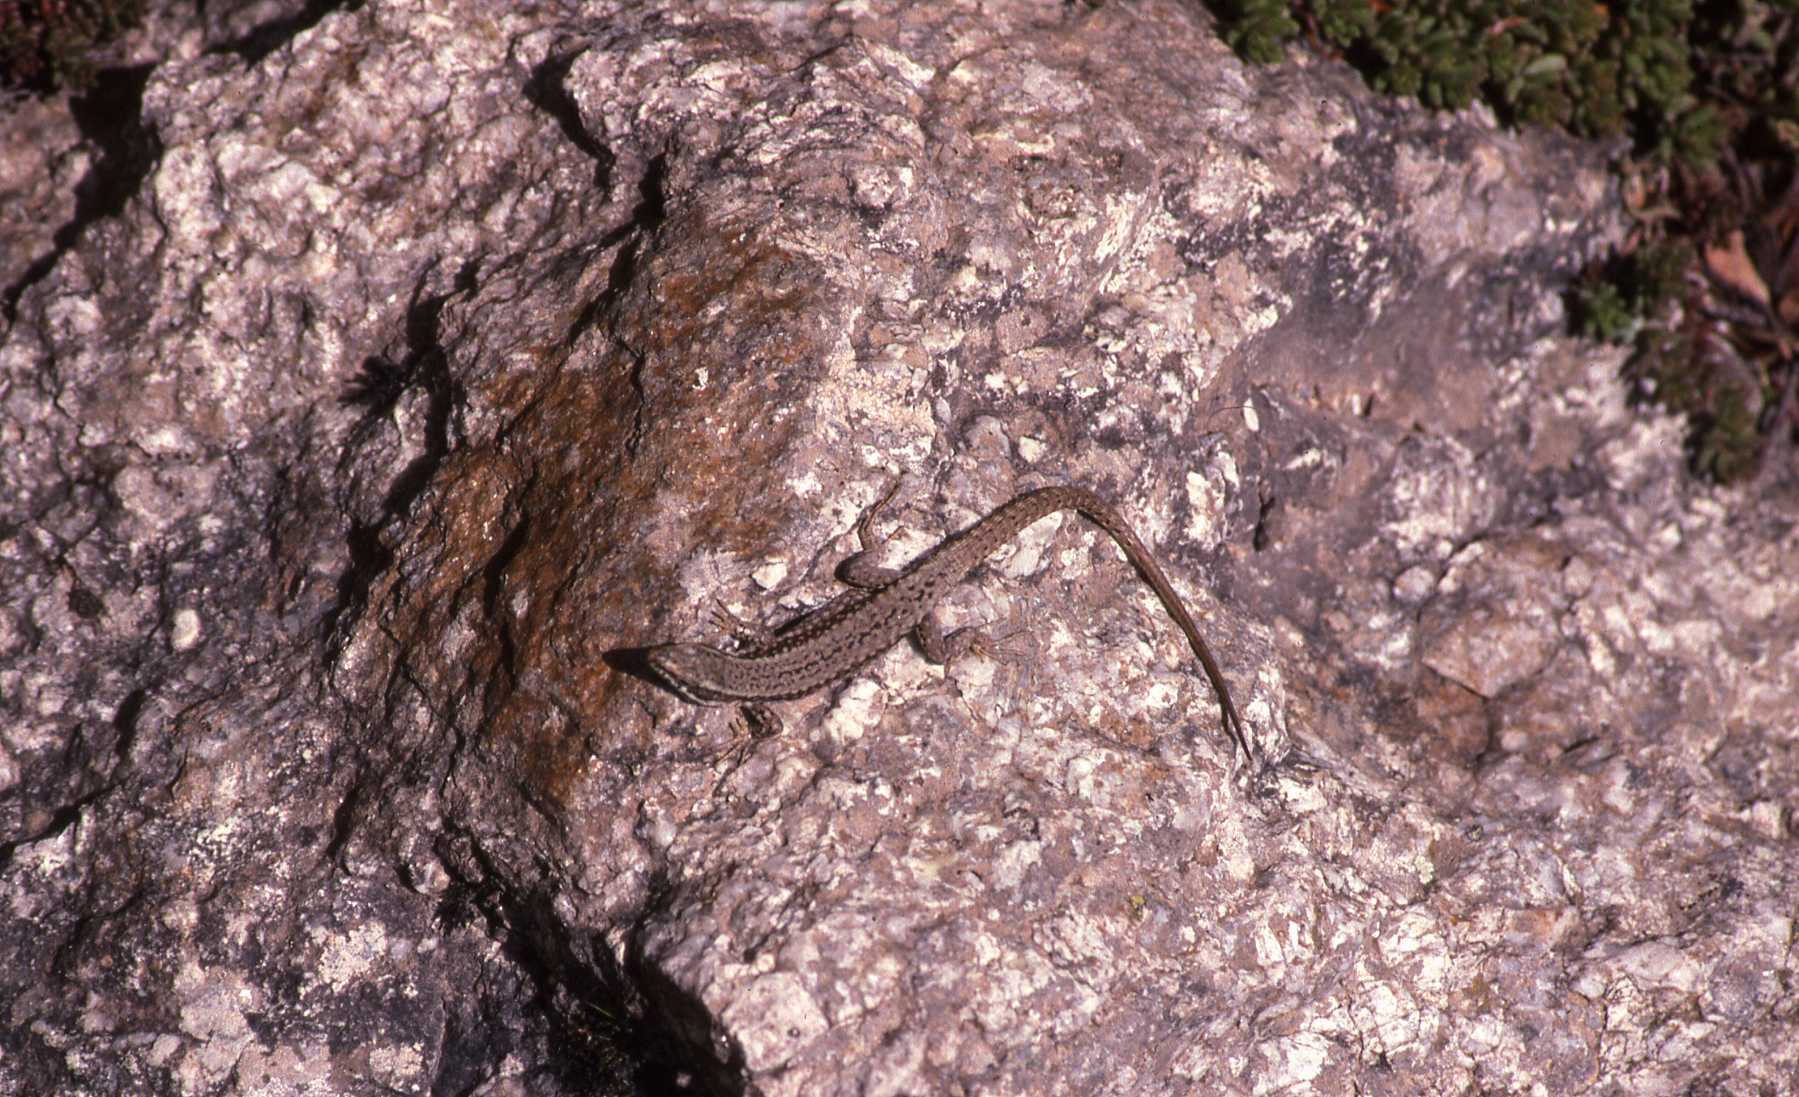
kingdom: Animalia
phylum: Chordata
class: Squamata
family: Lacertidae
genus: Podarcis
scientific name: Podarcis muralis
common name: Common wall lizard
